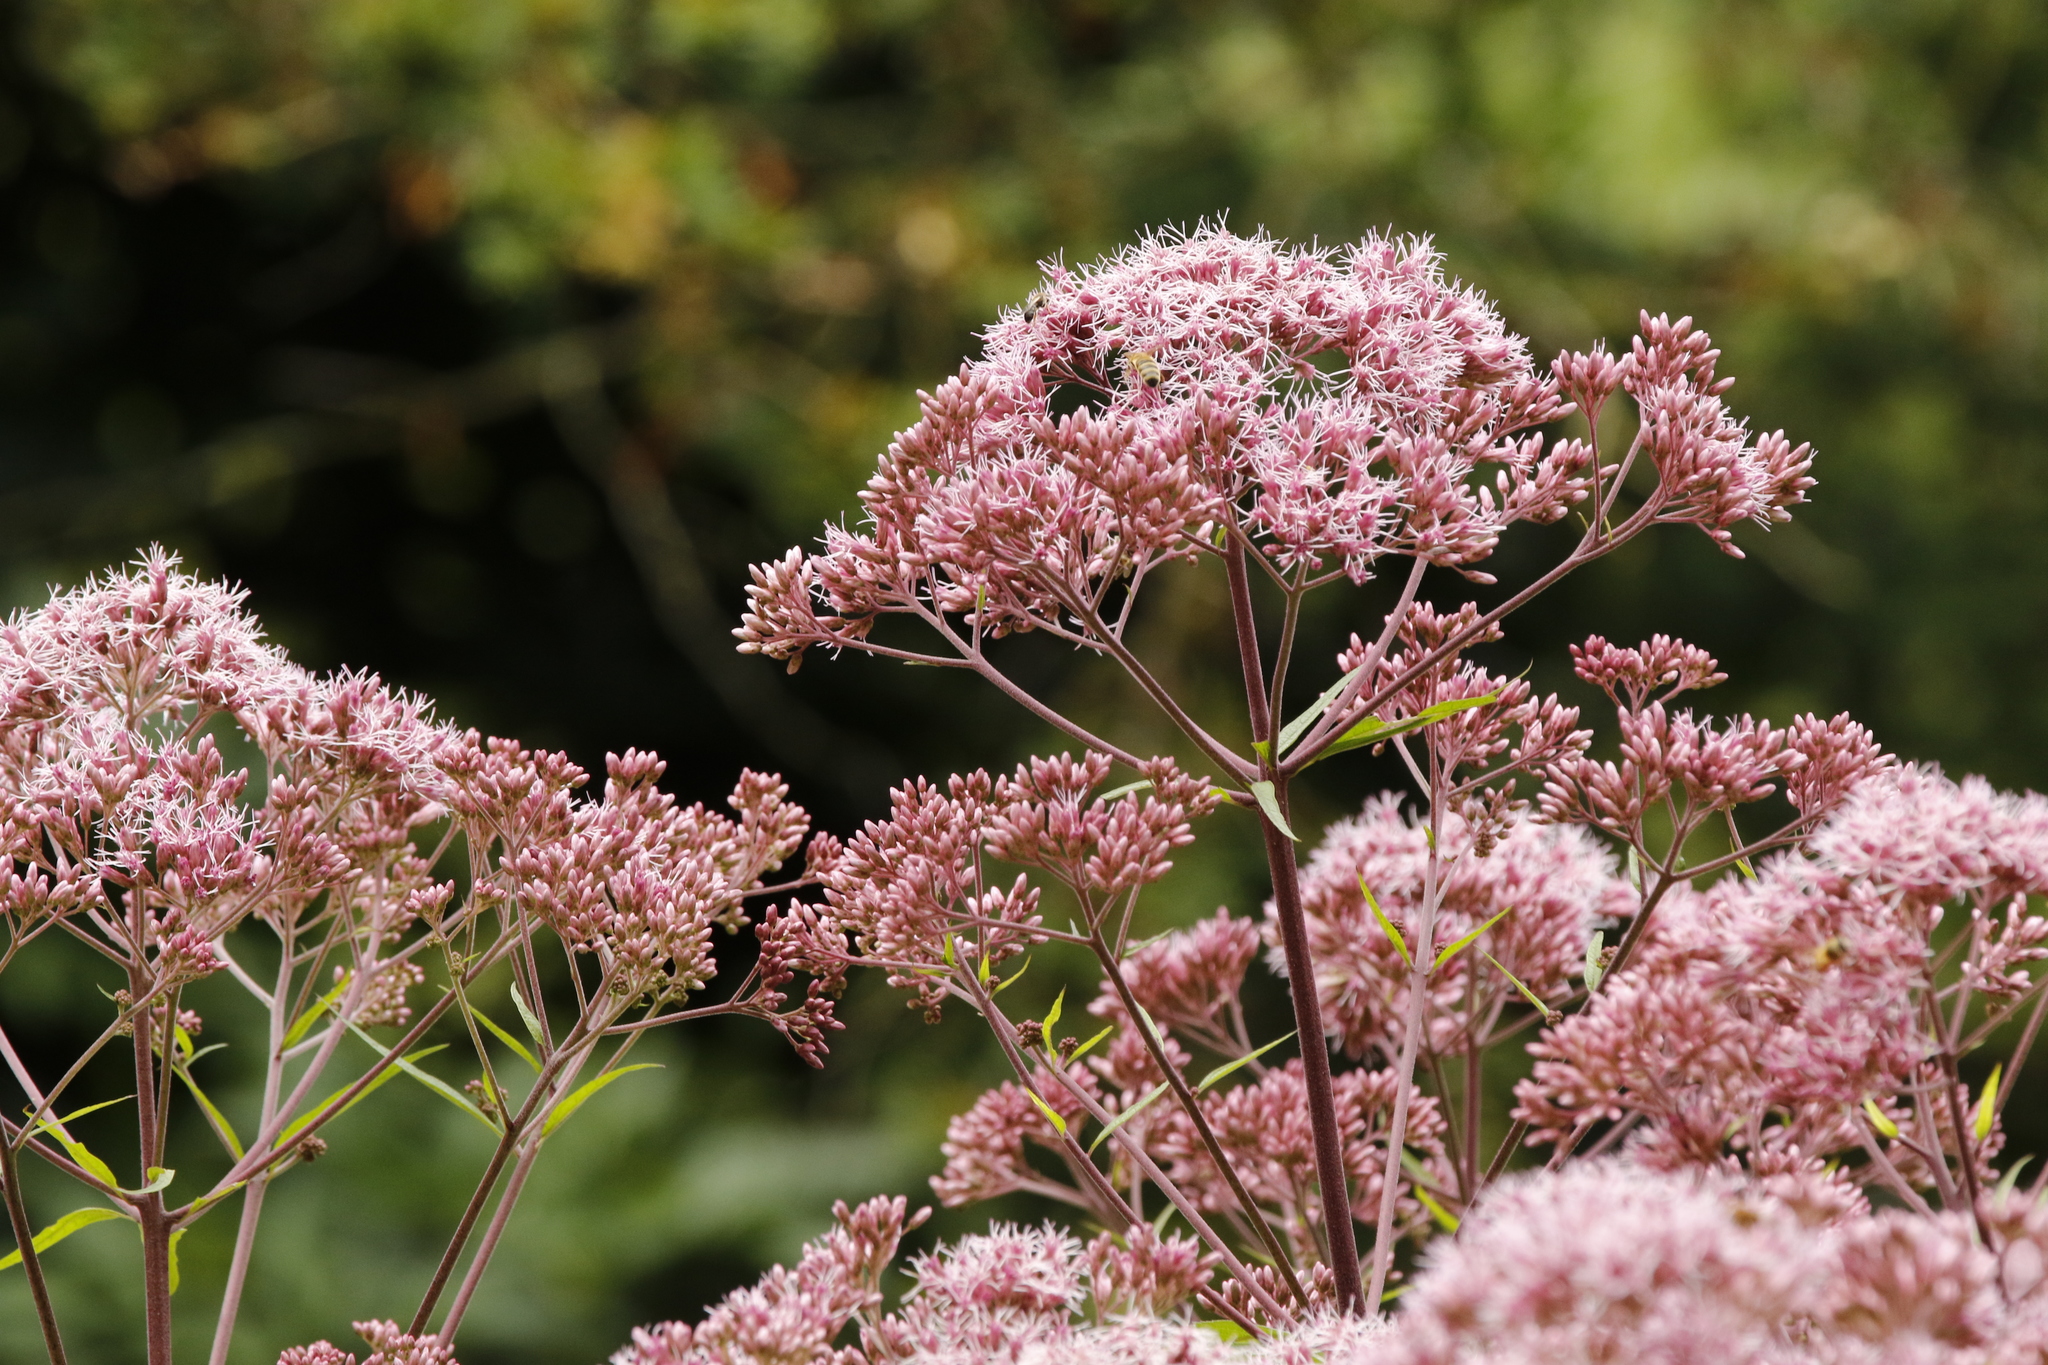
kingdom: Plantae
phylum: Tracheophyta
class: Magnoliopsida
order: Asterales
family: Asteraceae
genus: Eupatorium
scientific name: Eupatorium cannabinum
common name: Hemp-agrimony
